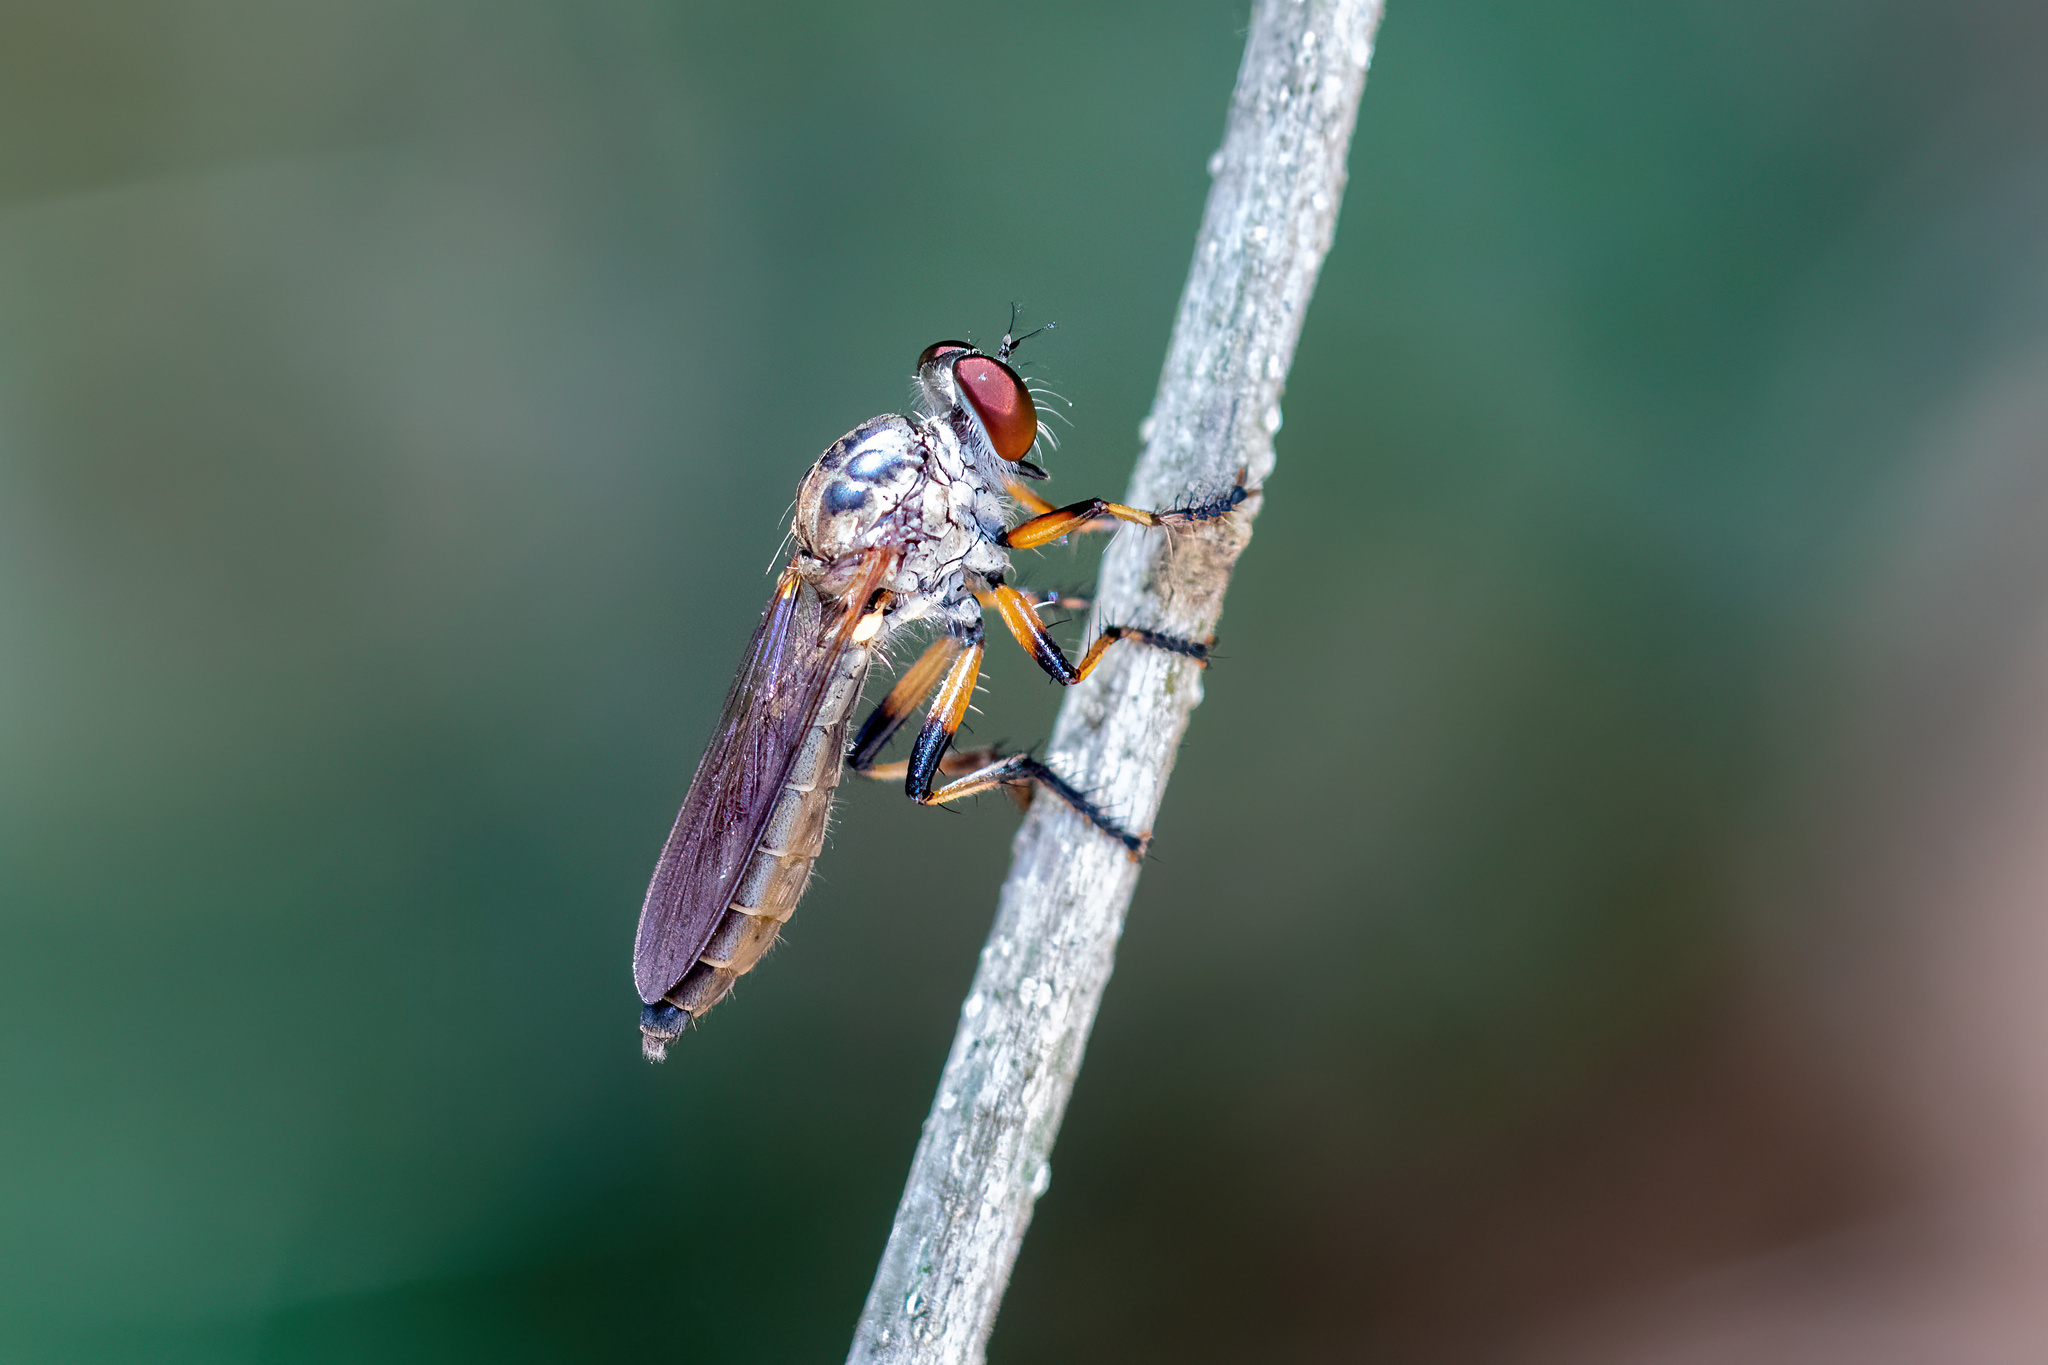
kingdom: Animalia
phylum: Arthropoda
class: Insecta
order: Diptera
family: Asilidae
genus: Ommatius
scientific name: Ommatius floridensis
